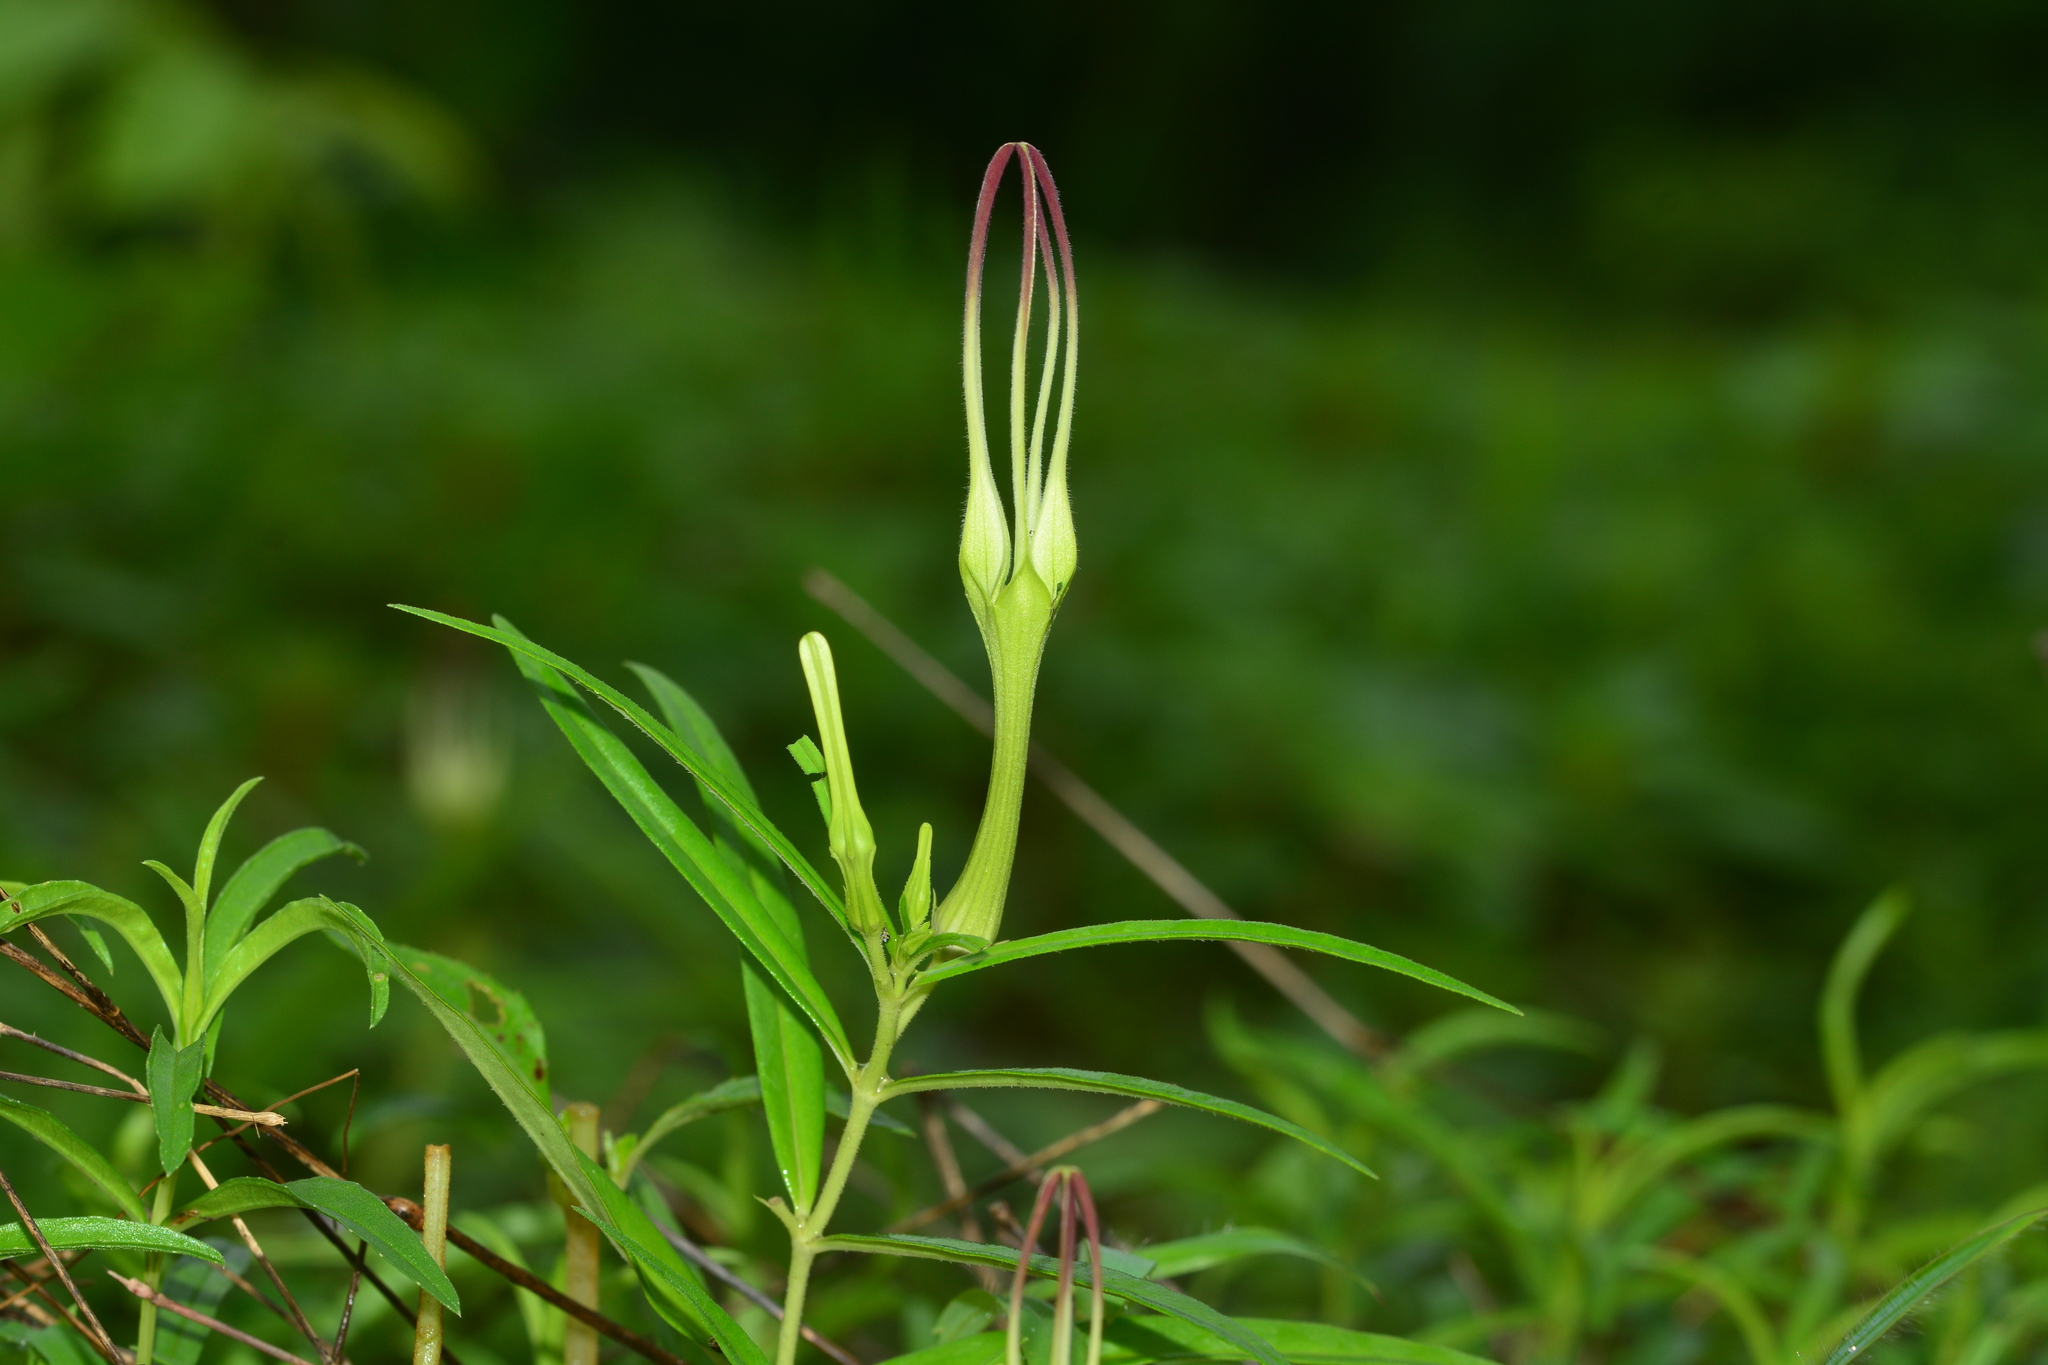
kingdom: Plantae
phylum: Tracheophyta
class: Magnoliopsida
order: Gentianales
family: Apocynaceae
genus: Ceropegia
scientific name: Ceropegia attenuata
